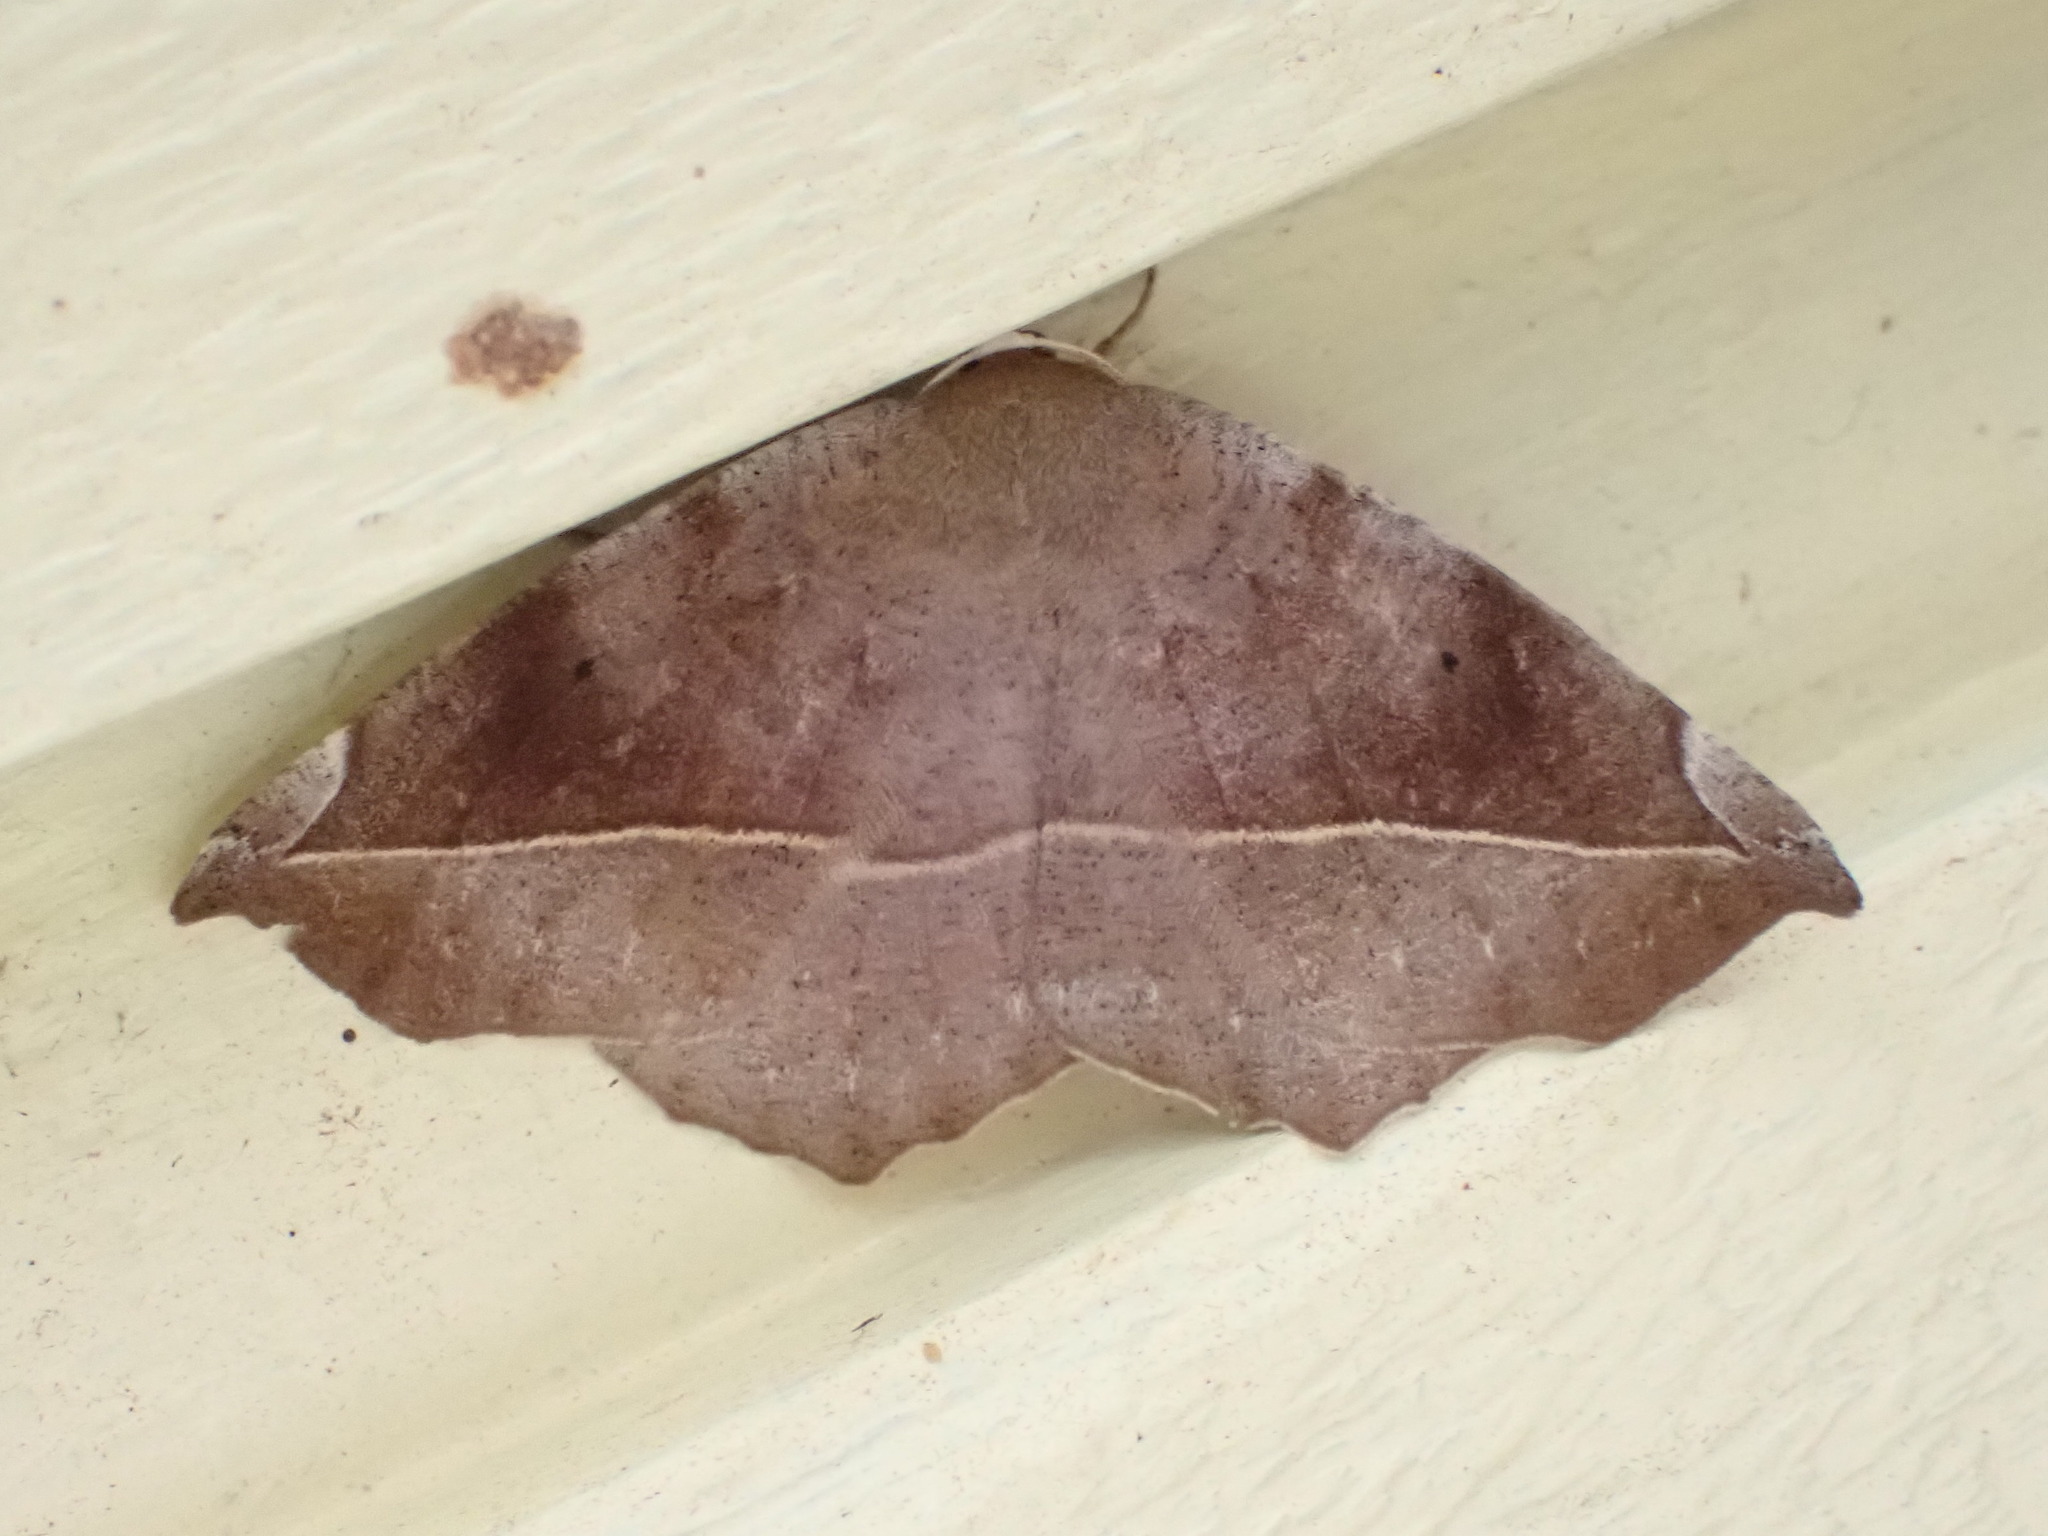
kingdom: Animalia
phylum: Arthropoda
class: Insecta
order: Lepidoptera
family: Geometridae
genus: Eutrapela
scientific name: Eutrapela clemataria
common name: Curved-toothed geometer
